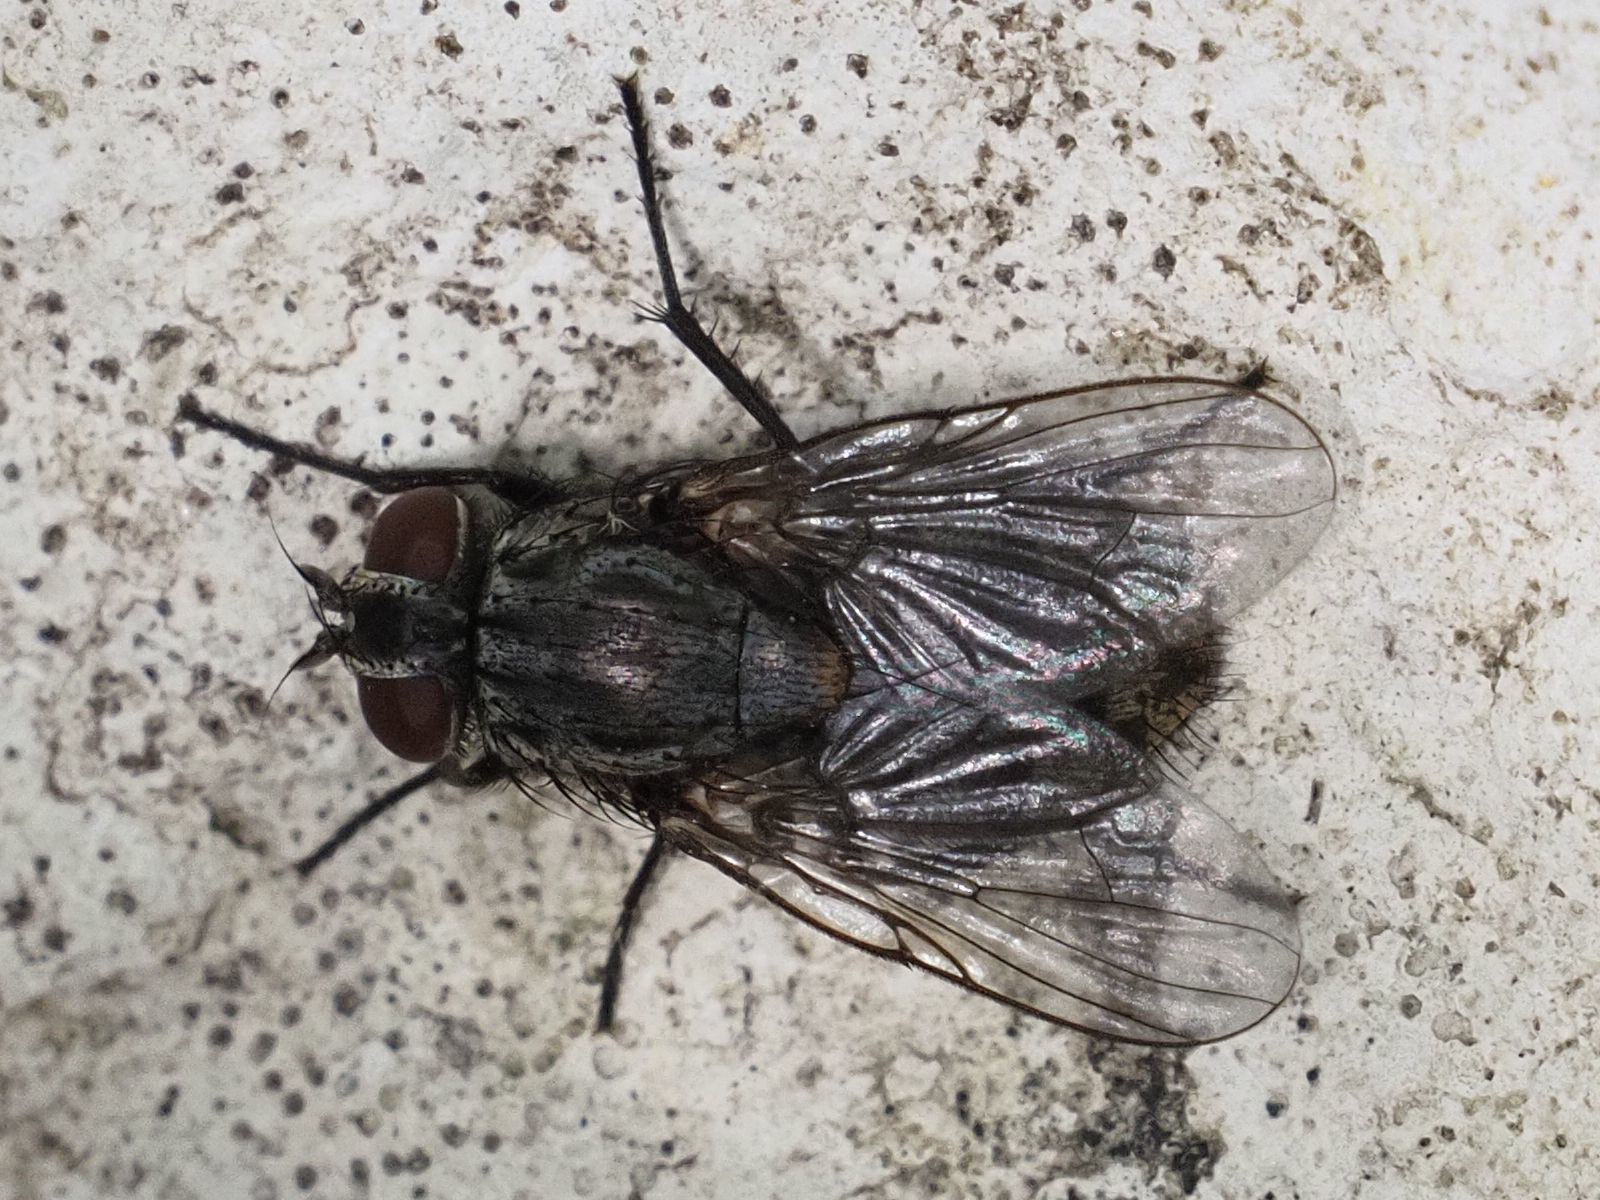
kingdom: Animalia
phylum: Arthropoda
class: Insecta
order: Diptera
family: Muscidae
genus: Muscina
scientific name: Muscina levida
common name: House fly
